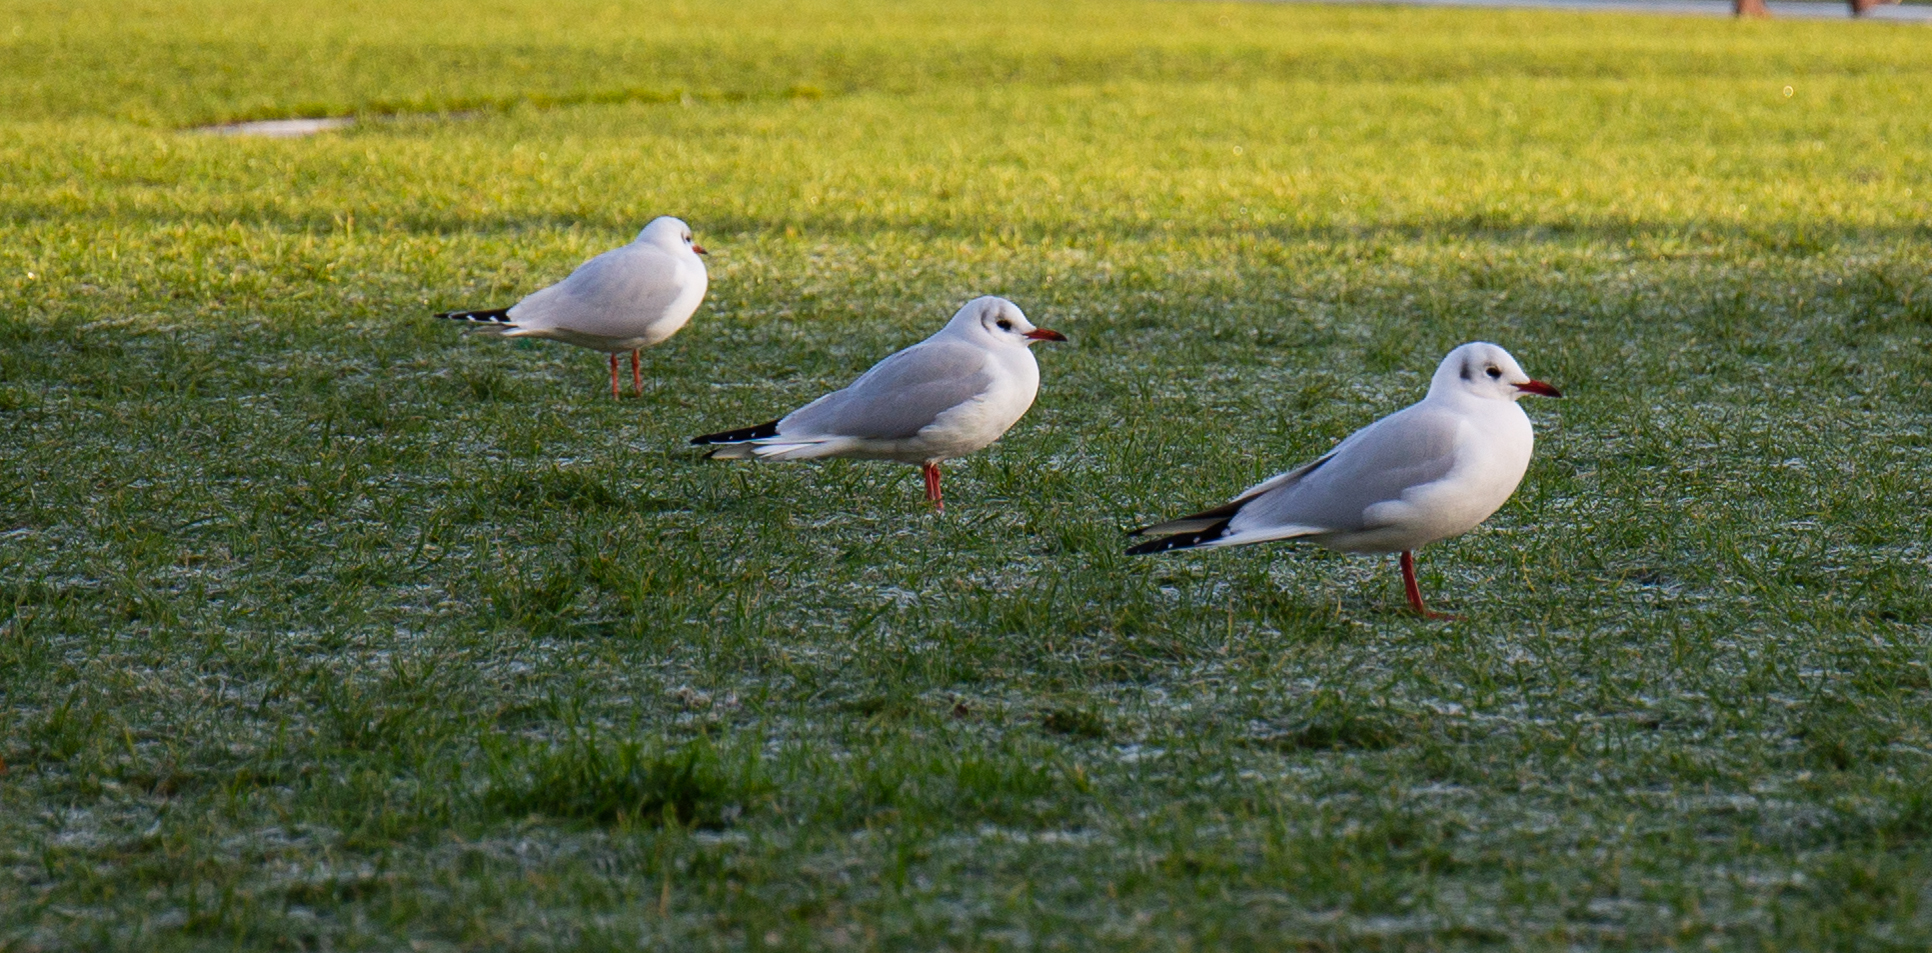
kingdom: Animalia
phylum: Chordata
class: Aves
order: Charadriiformes
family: Laridae
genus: Chroicocephalus
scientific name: Chroicocephalus ridibundus
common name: Black-headed gull
